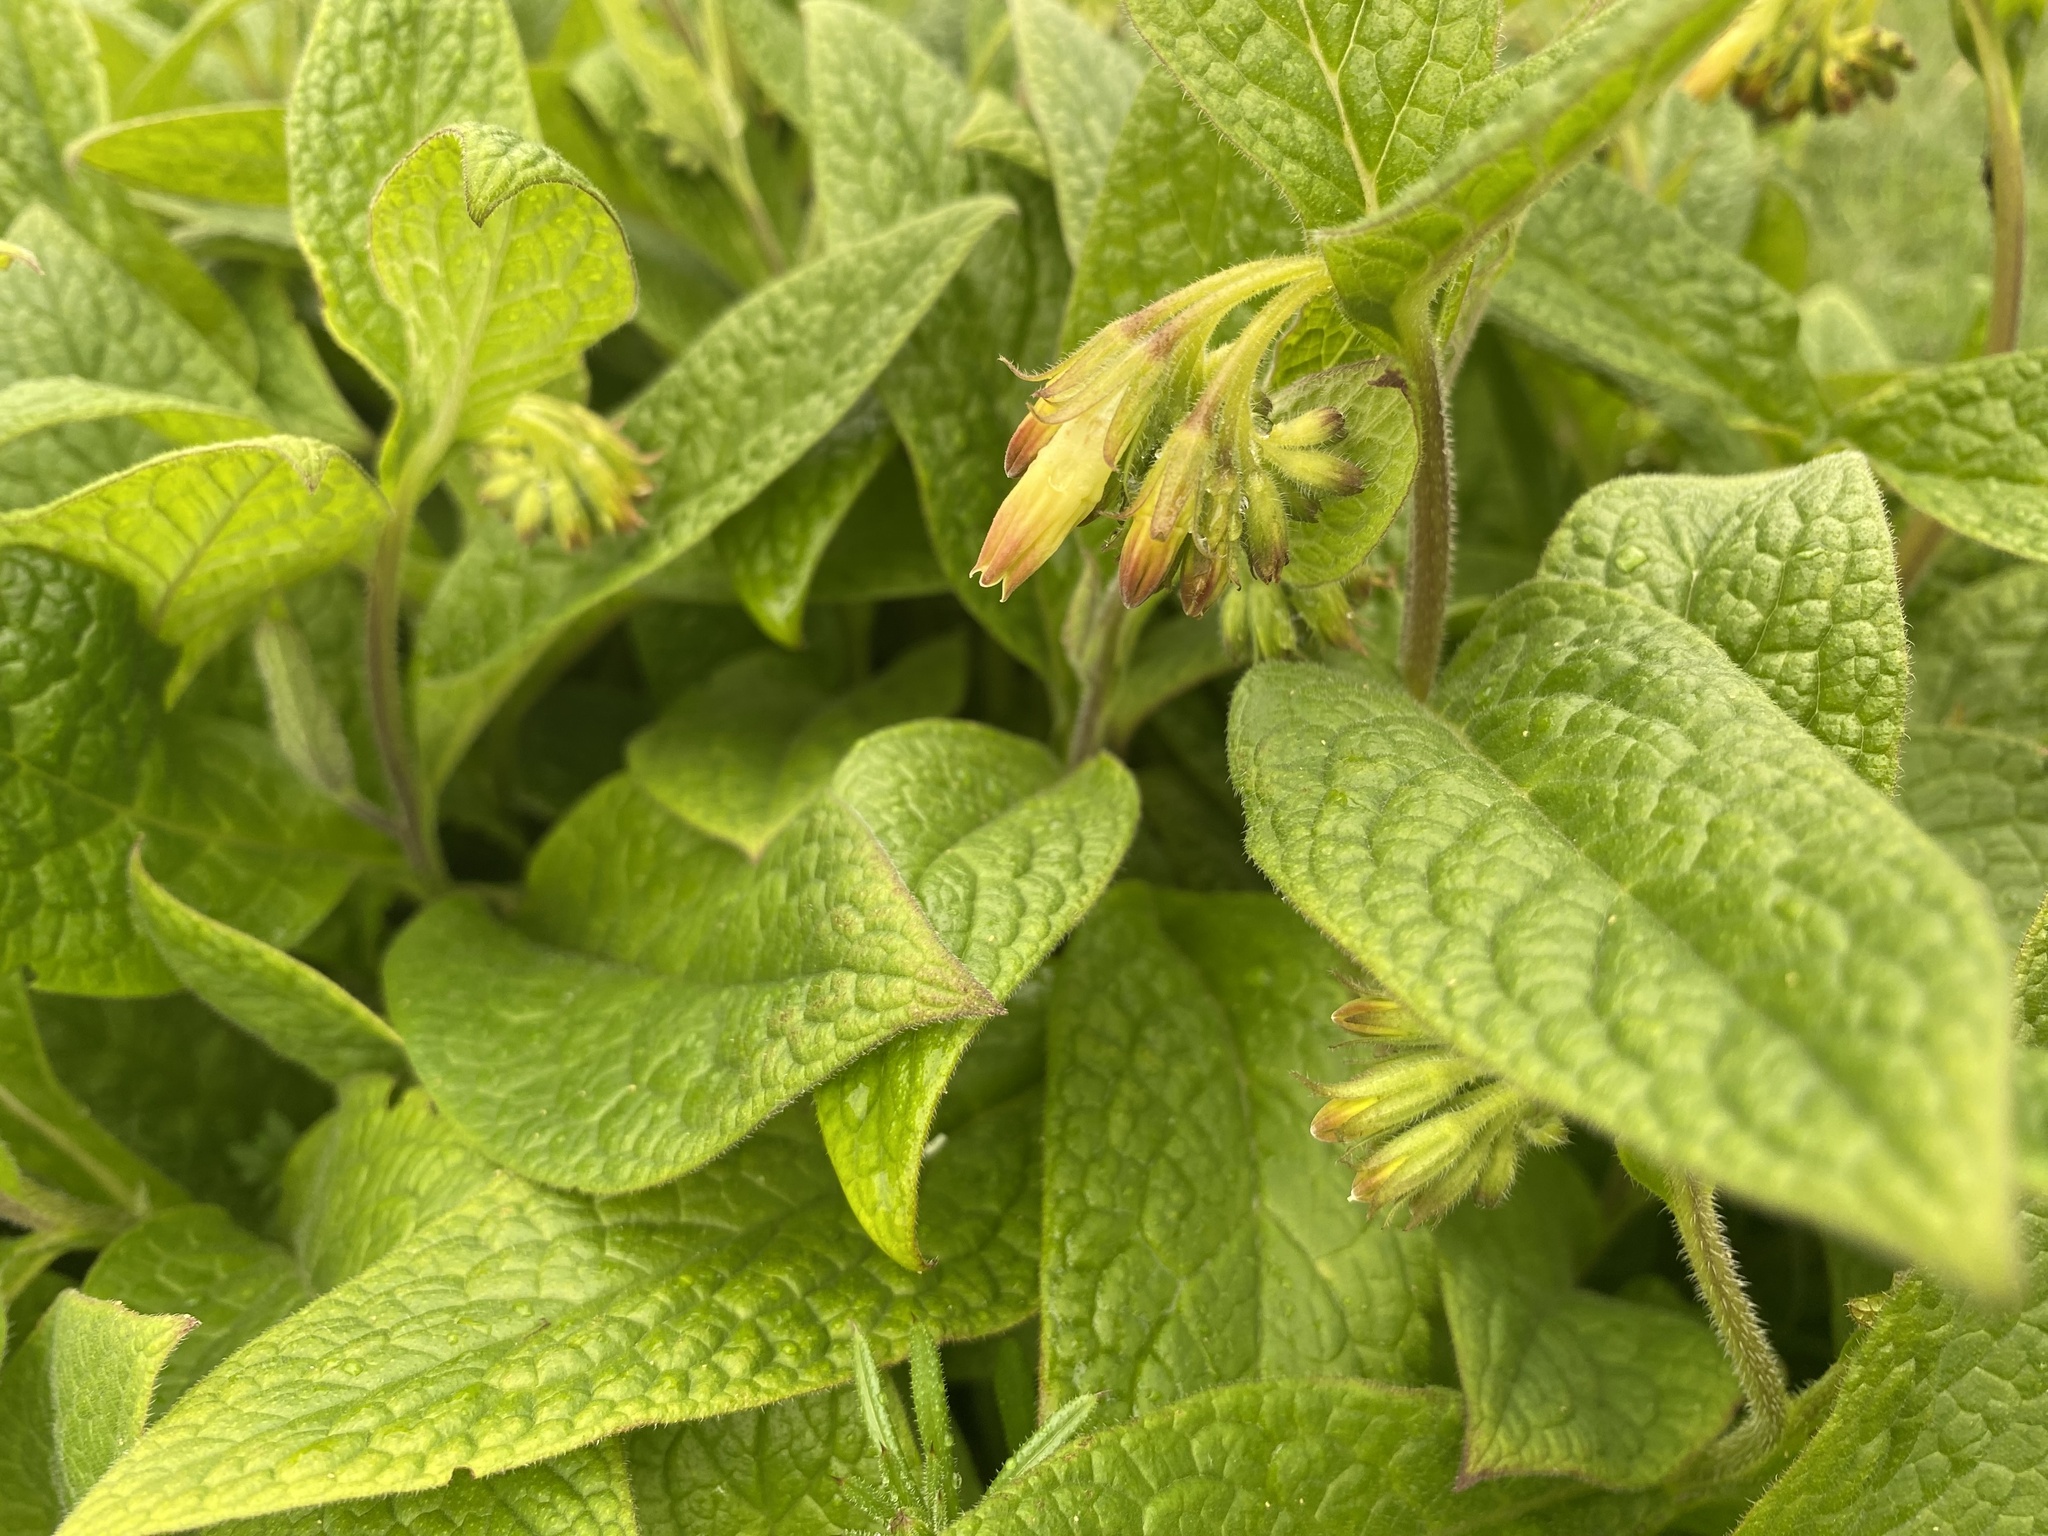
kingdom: Plantae
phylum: Tracheophyta
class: Magnoliopsida
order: Boraginales
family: Boraginaceae
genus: Symphytum
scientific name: Symphytum tuberosum
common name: Tuberous comfrey
